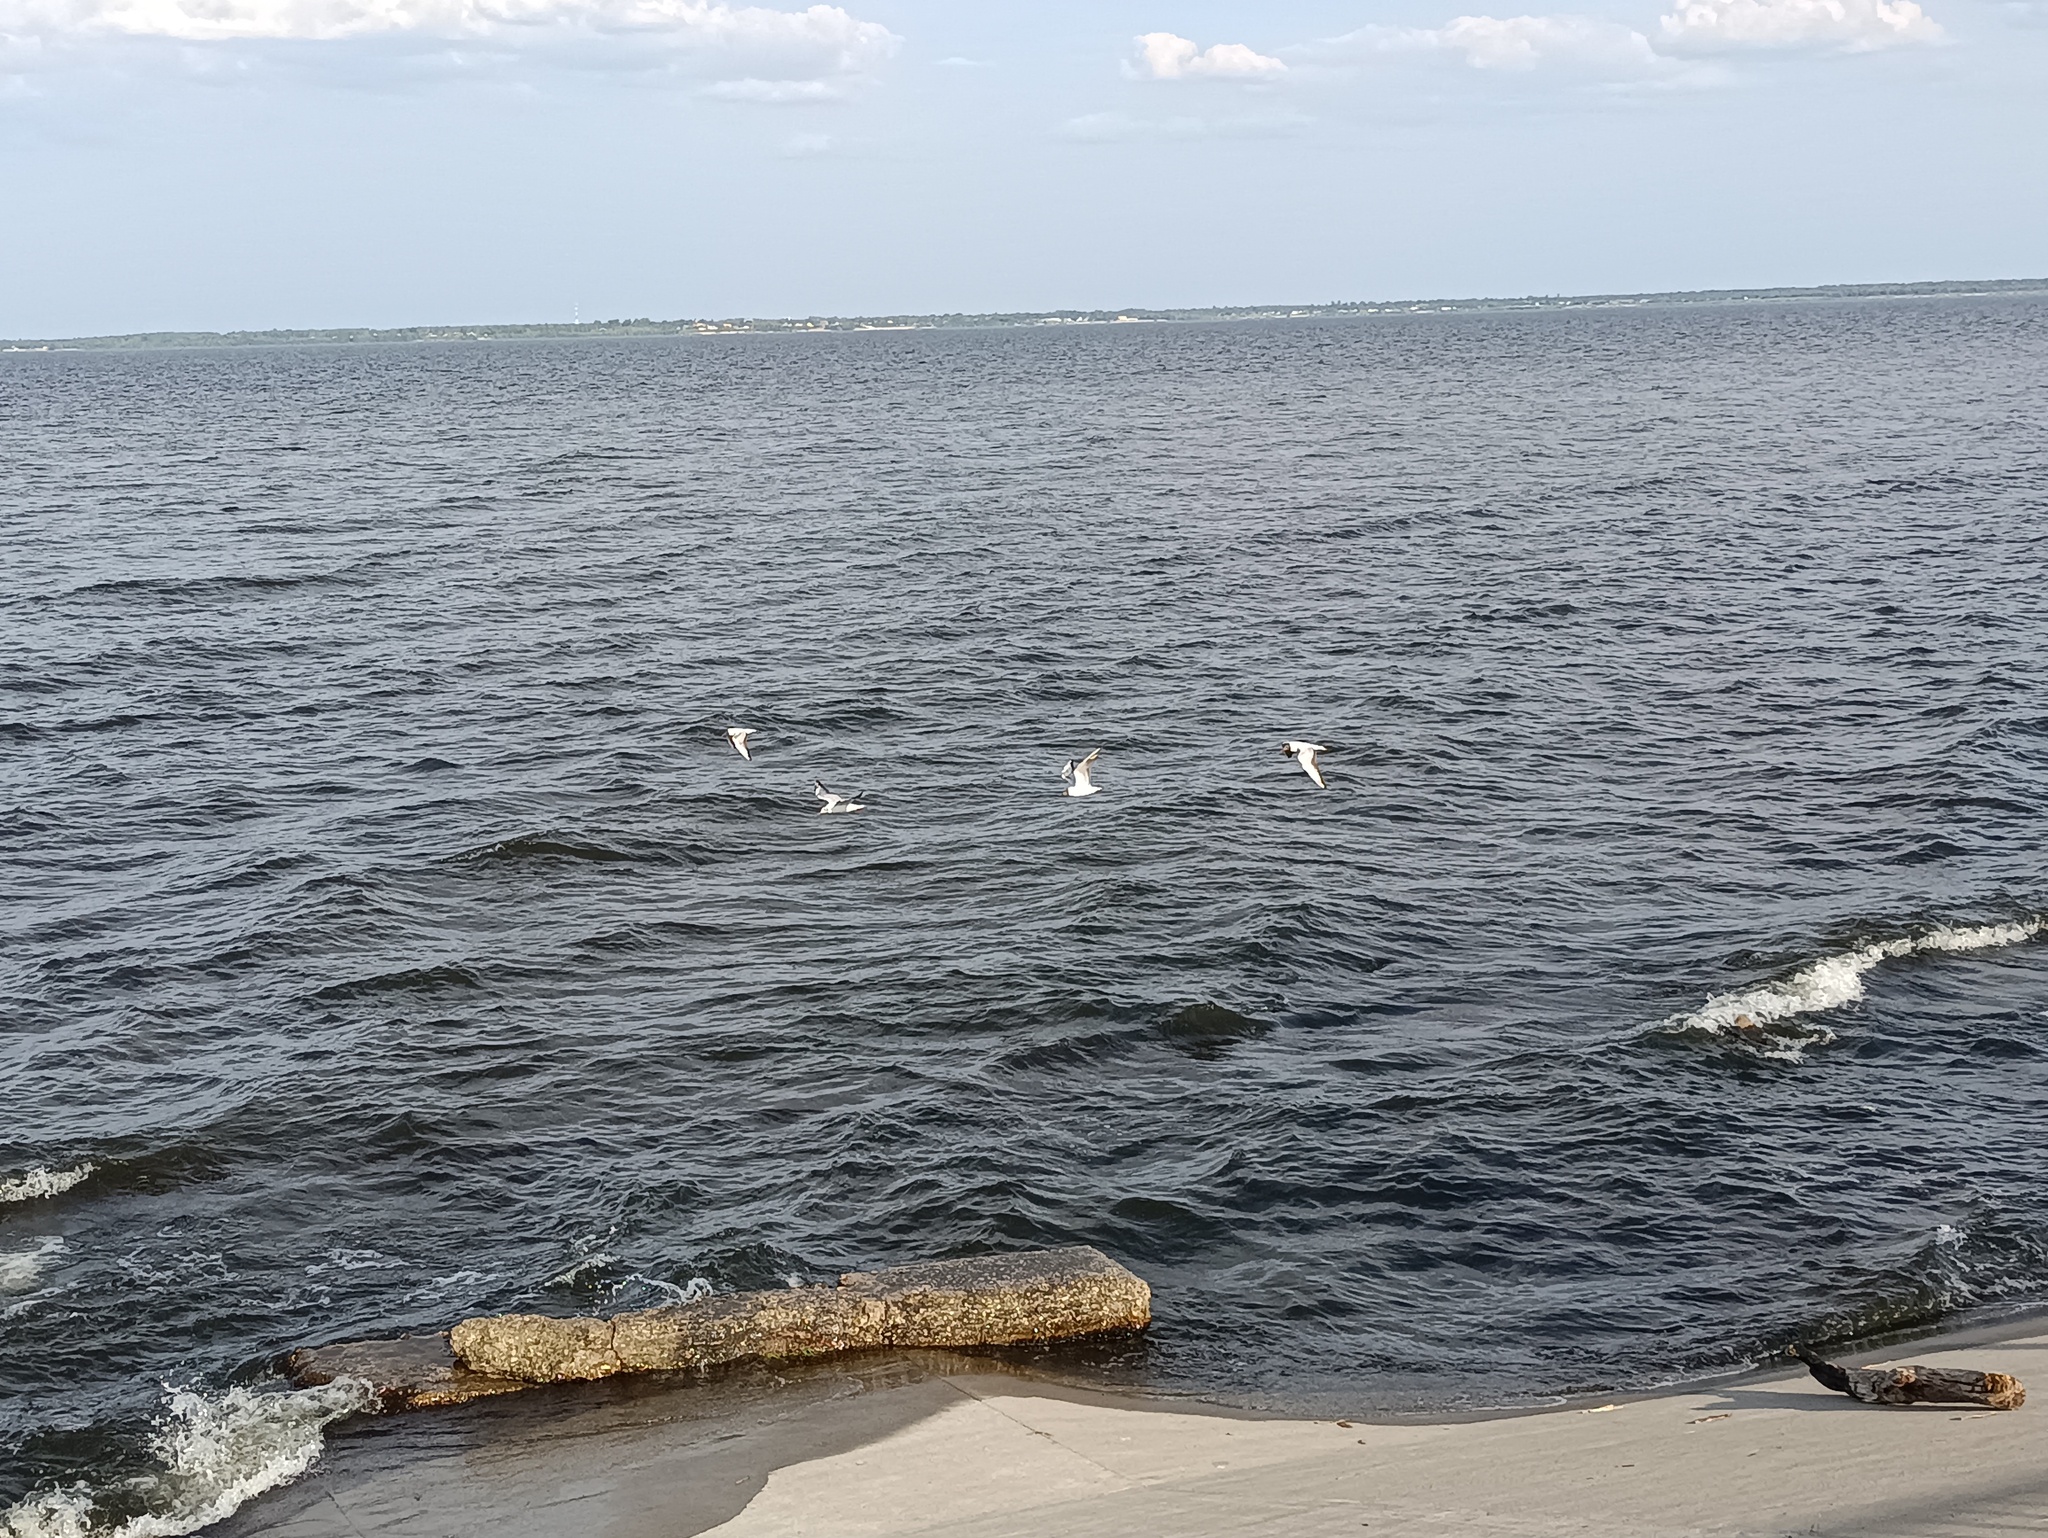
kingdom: Animalia
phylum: Chordata
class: Aves
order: Charadriiformes
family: Laridae
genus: Chroicocephalus
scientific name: Chroicocephalus ridibundus
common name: Black-headed gull
